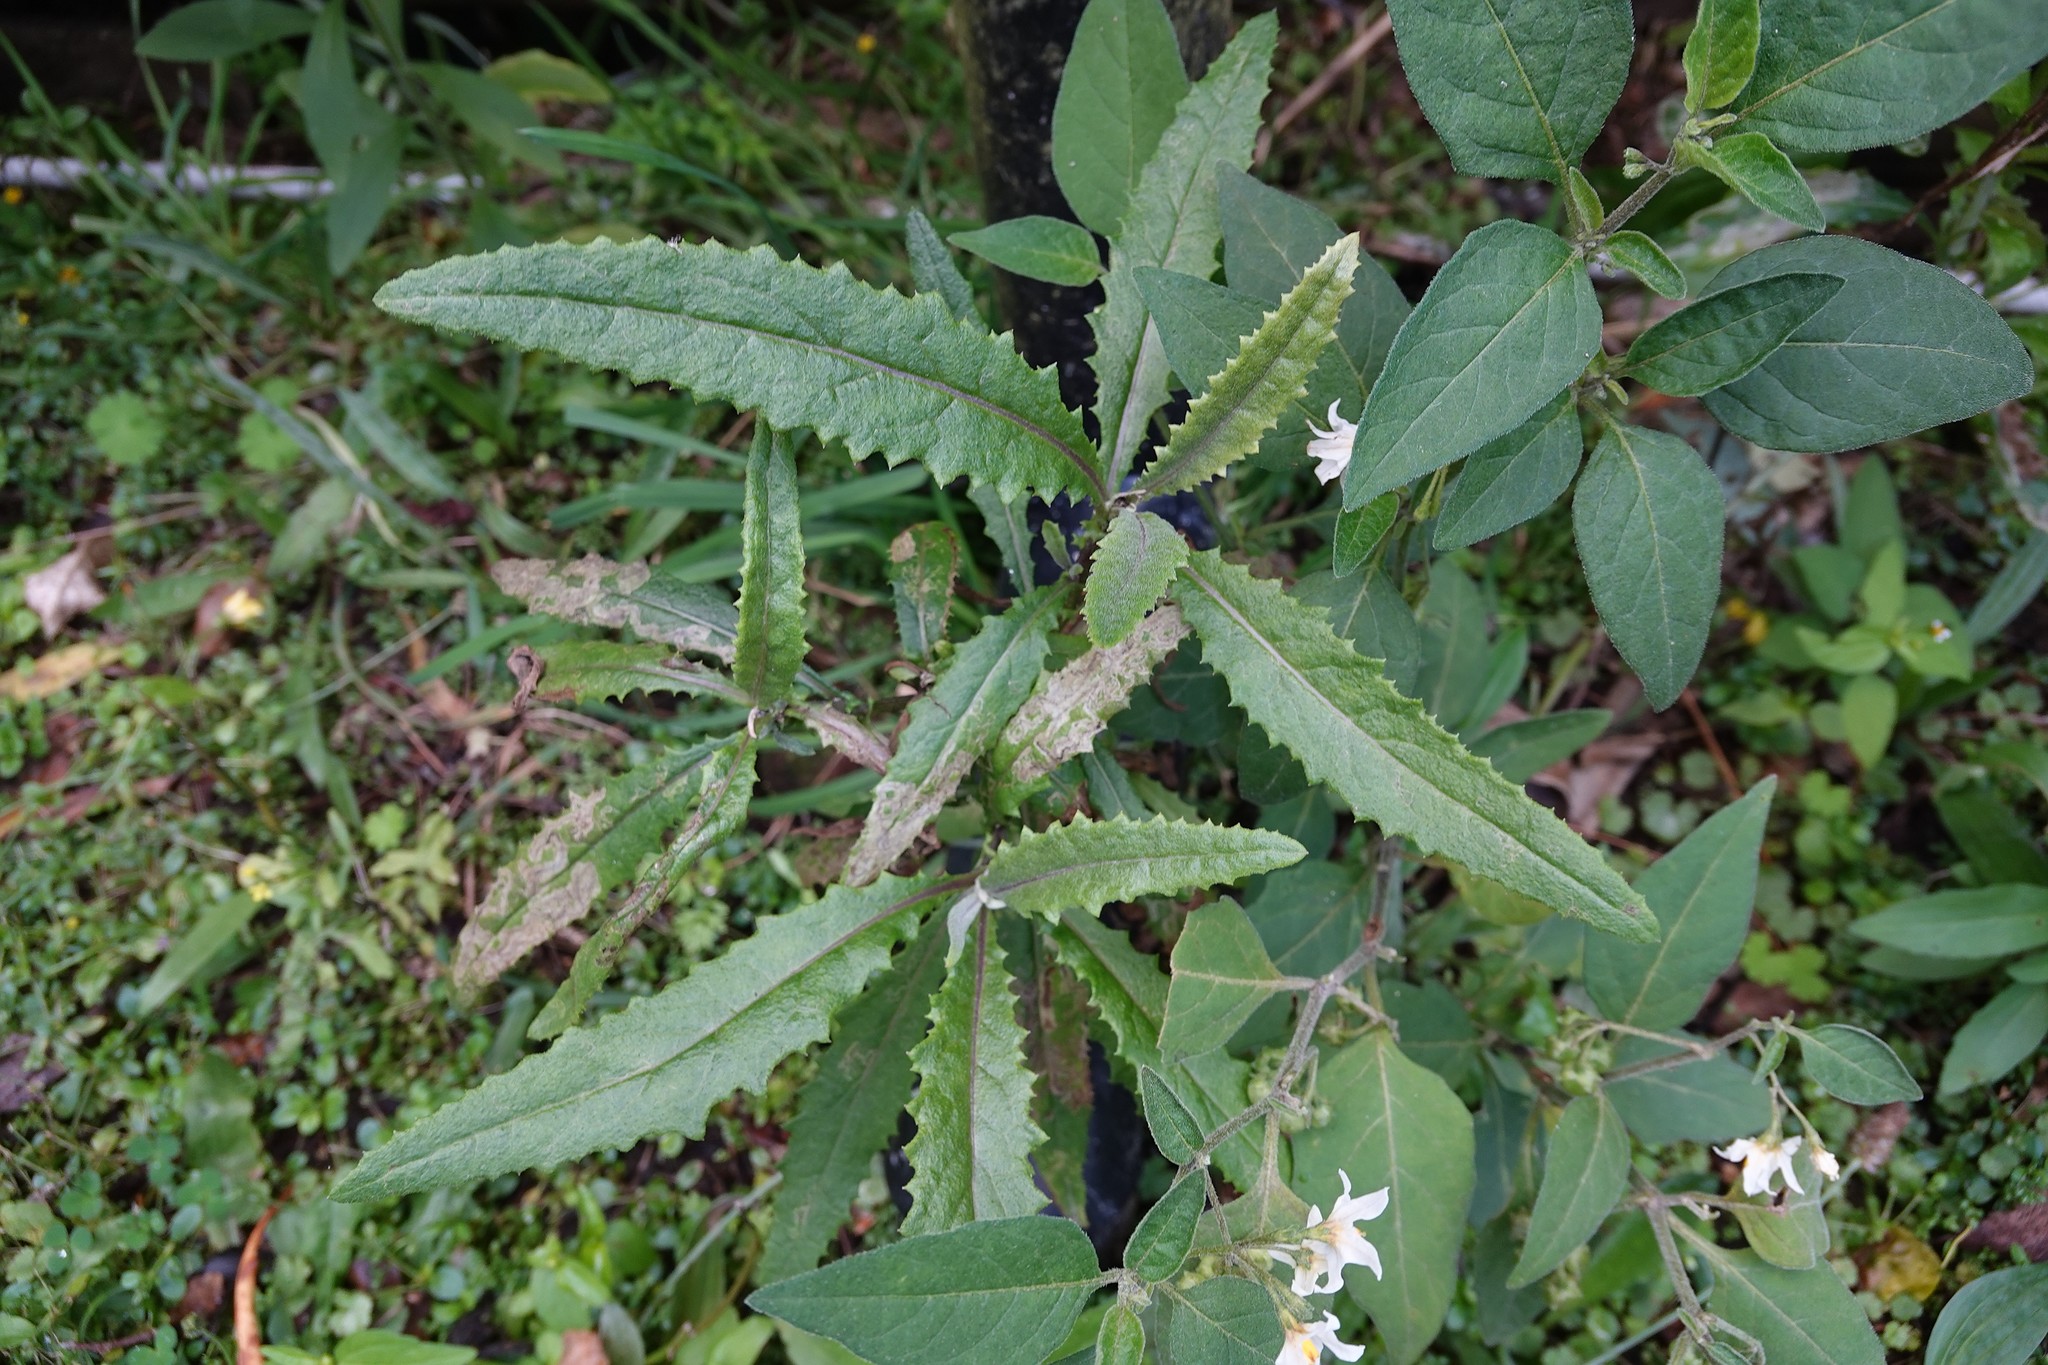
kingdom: Plantae
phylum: Tracheophyta
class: Magnoliopsida
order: Asterales
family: Asteraceae
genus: Senecio
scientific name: Senecio minimus
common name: Toothed fireweed
